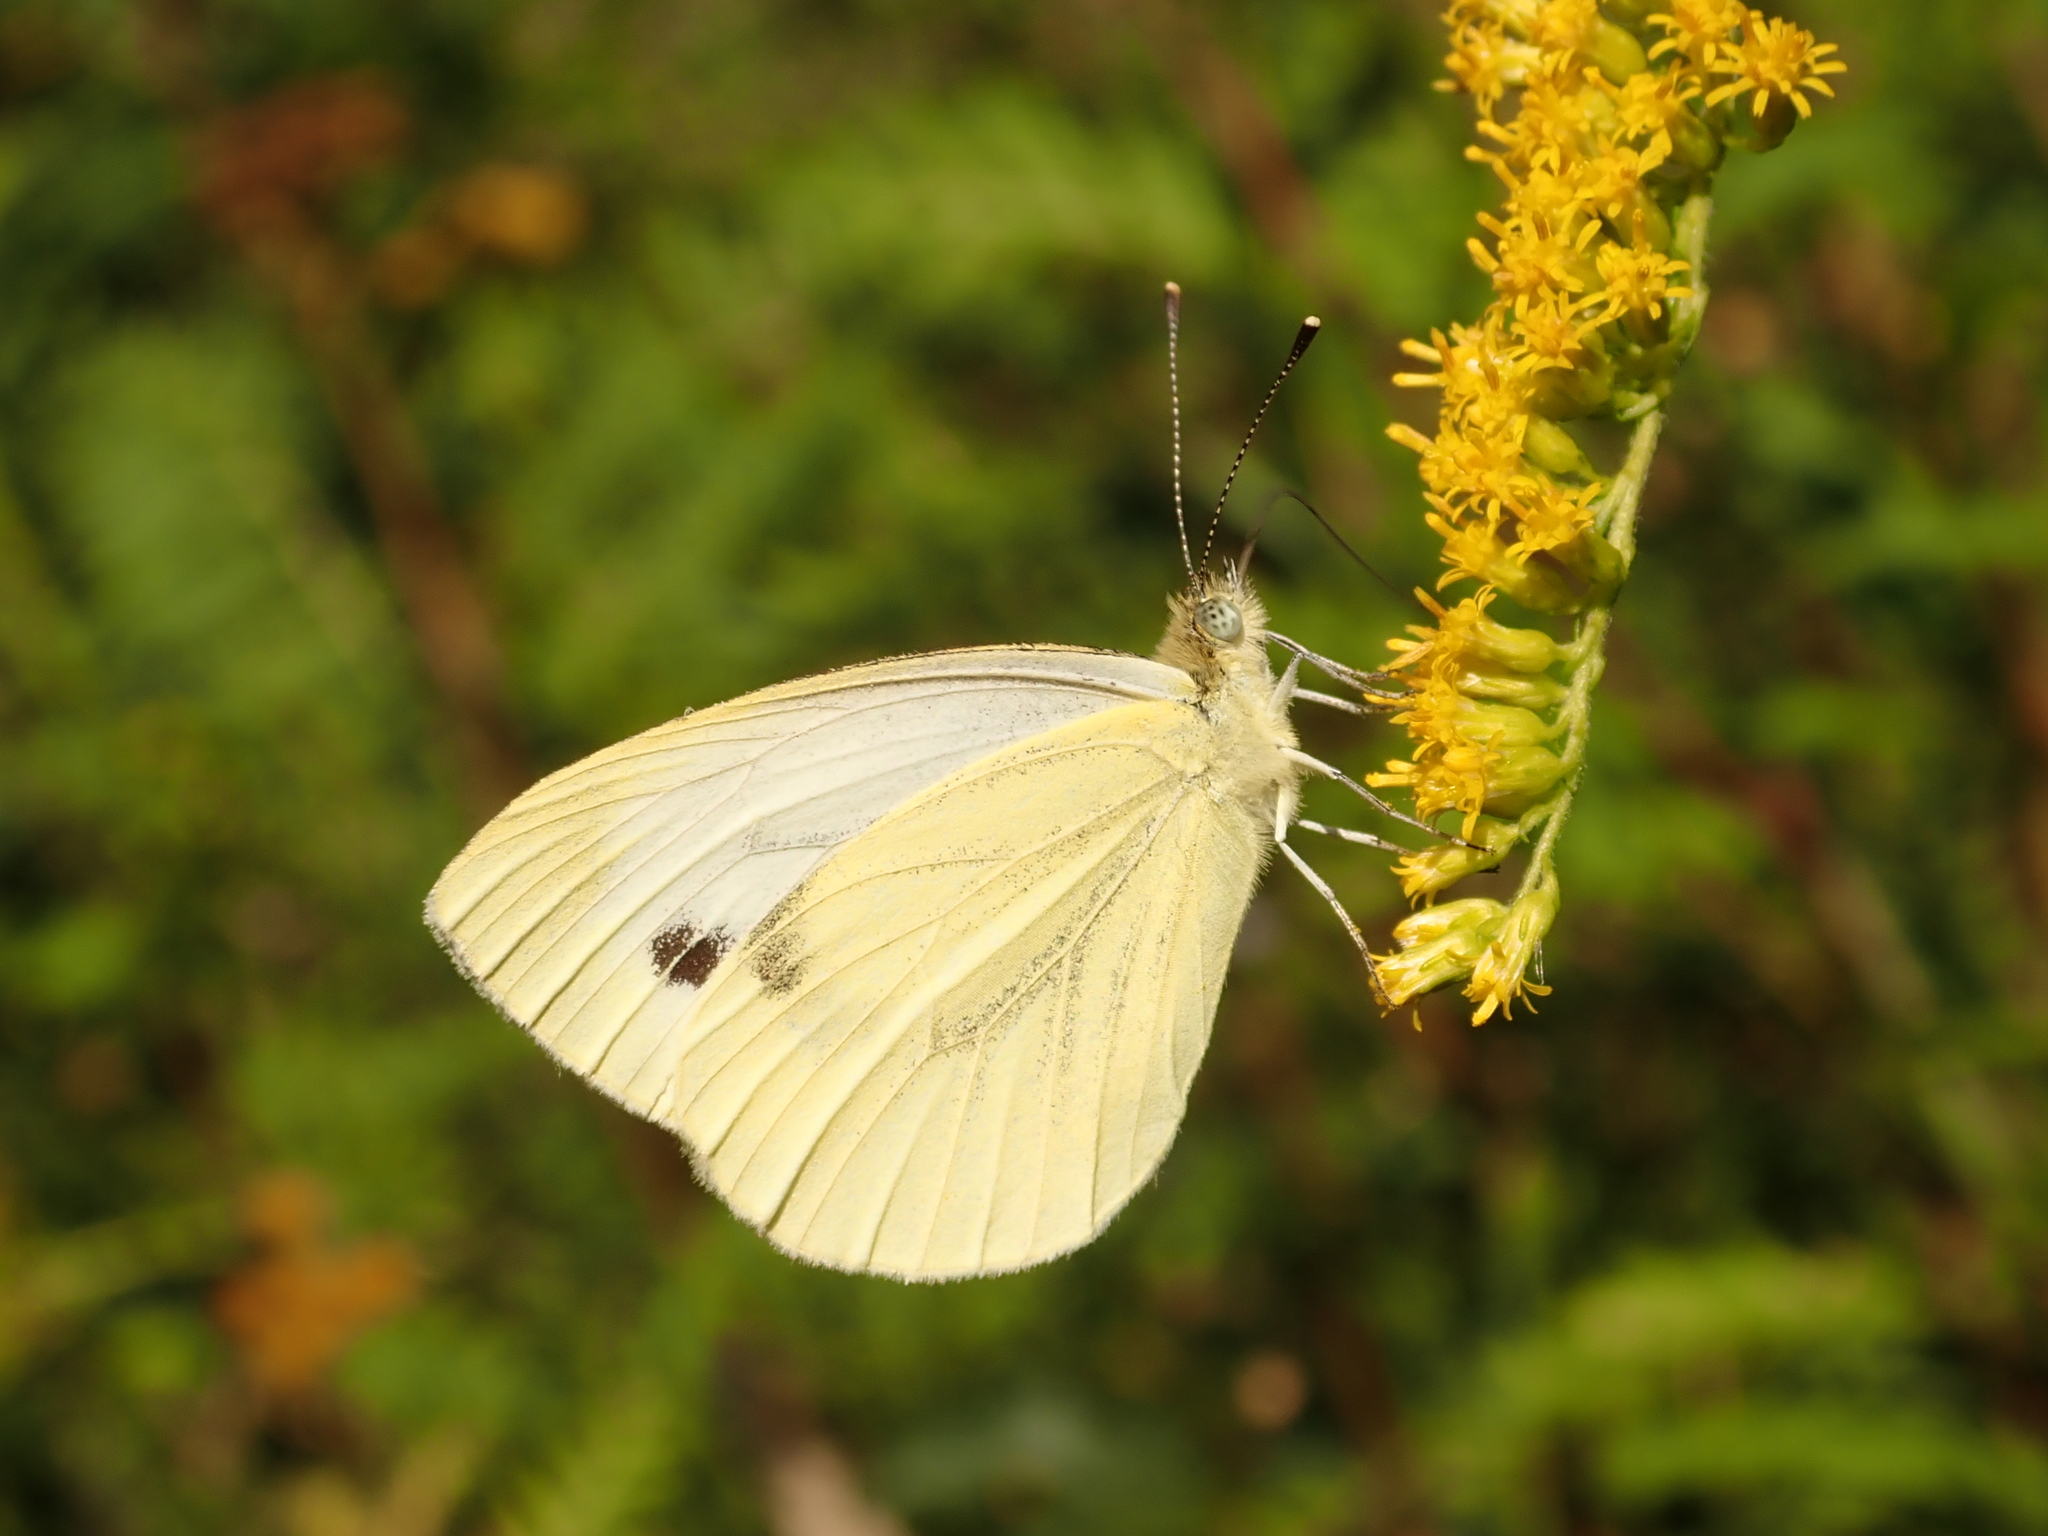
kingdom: Animalia
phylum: Arthropoda
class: Insecta
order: Lepidoptera
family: Pieridae
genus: Pieris
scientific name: Pieris napi
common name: Green-veined white
